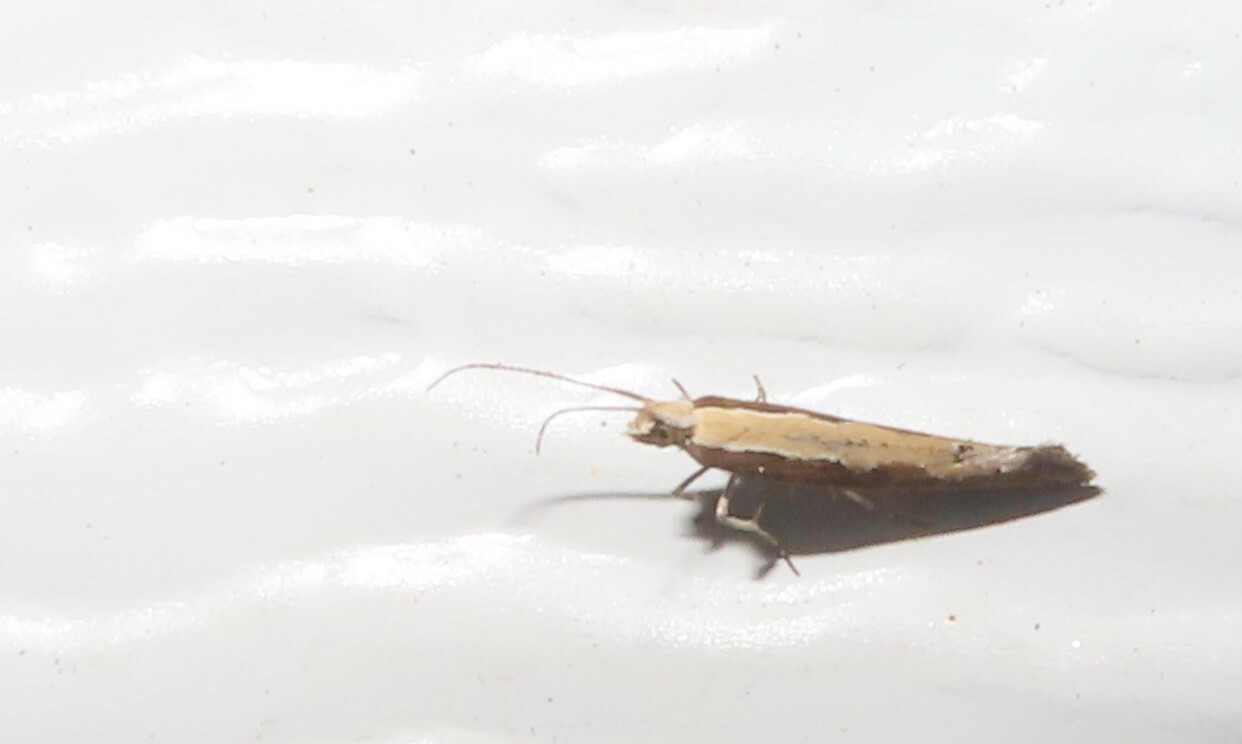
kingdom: Animalia
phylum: Arthropoda
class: Insecta
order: Lepidoptera
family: Plutellidae
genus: Plutella
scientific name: Plutella xylostella
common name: Diamond-back moth
